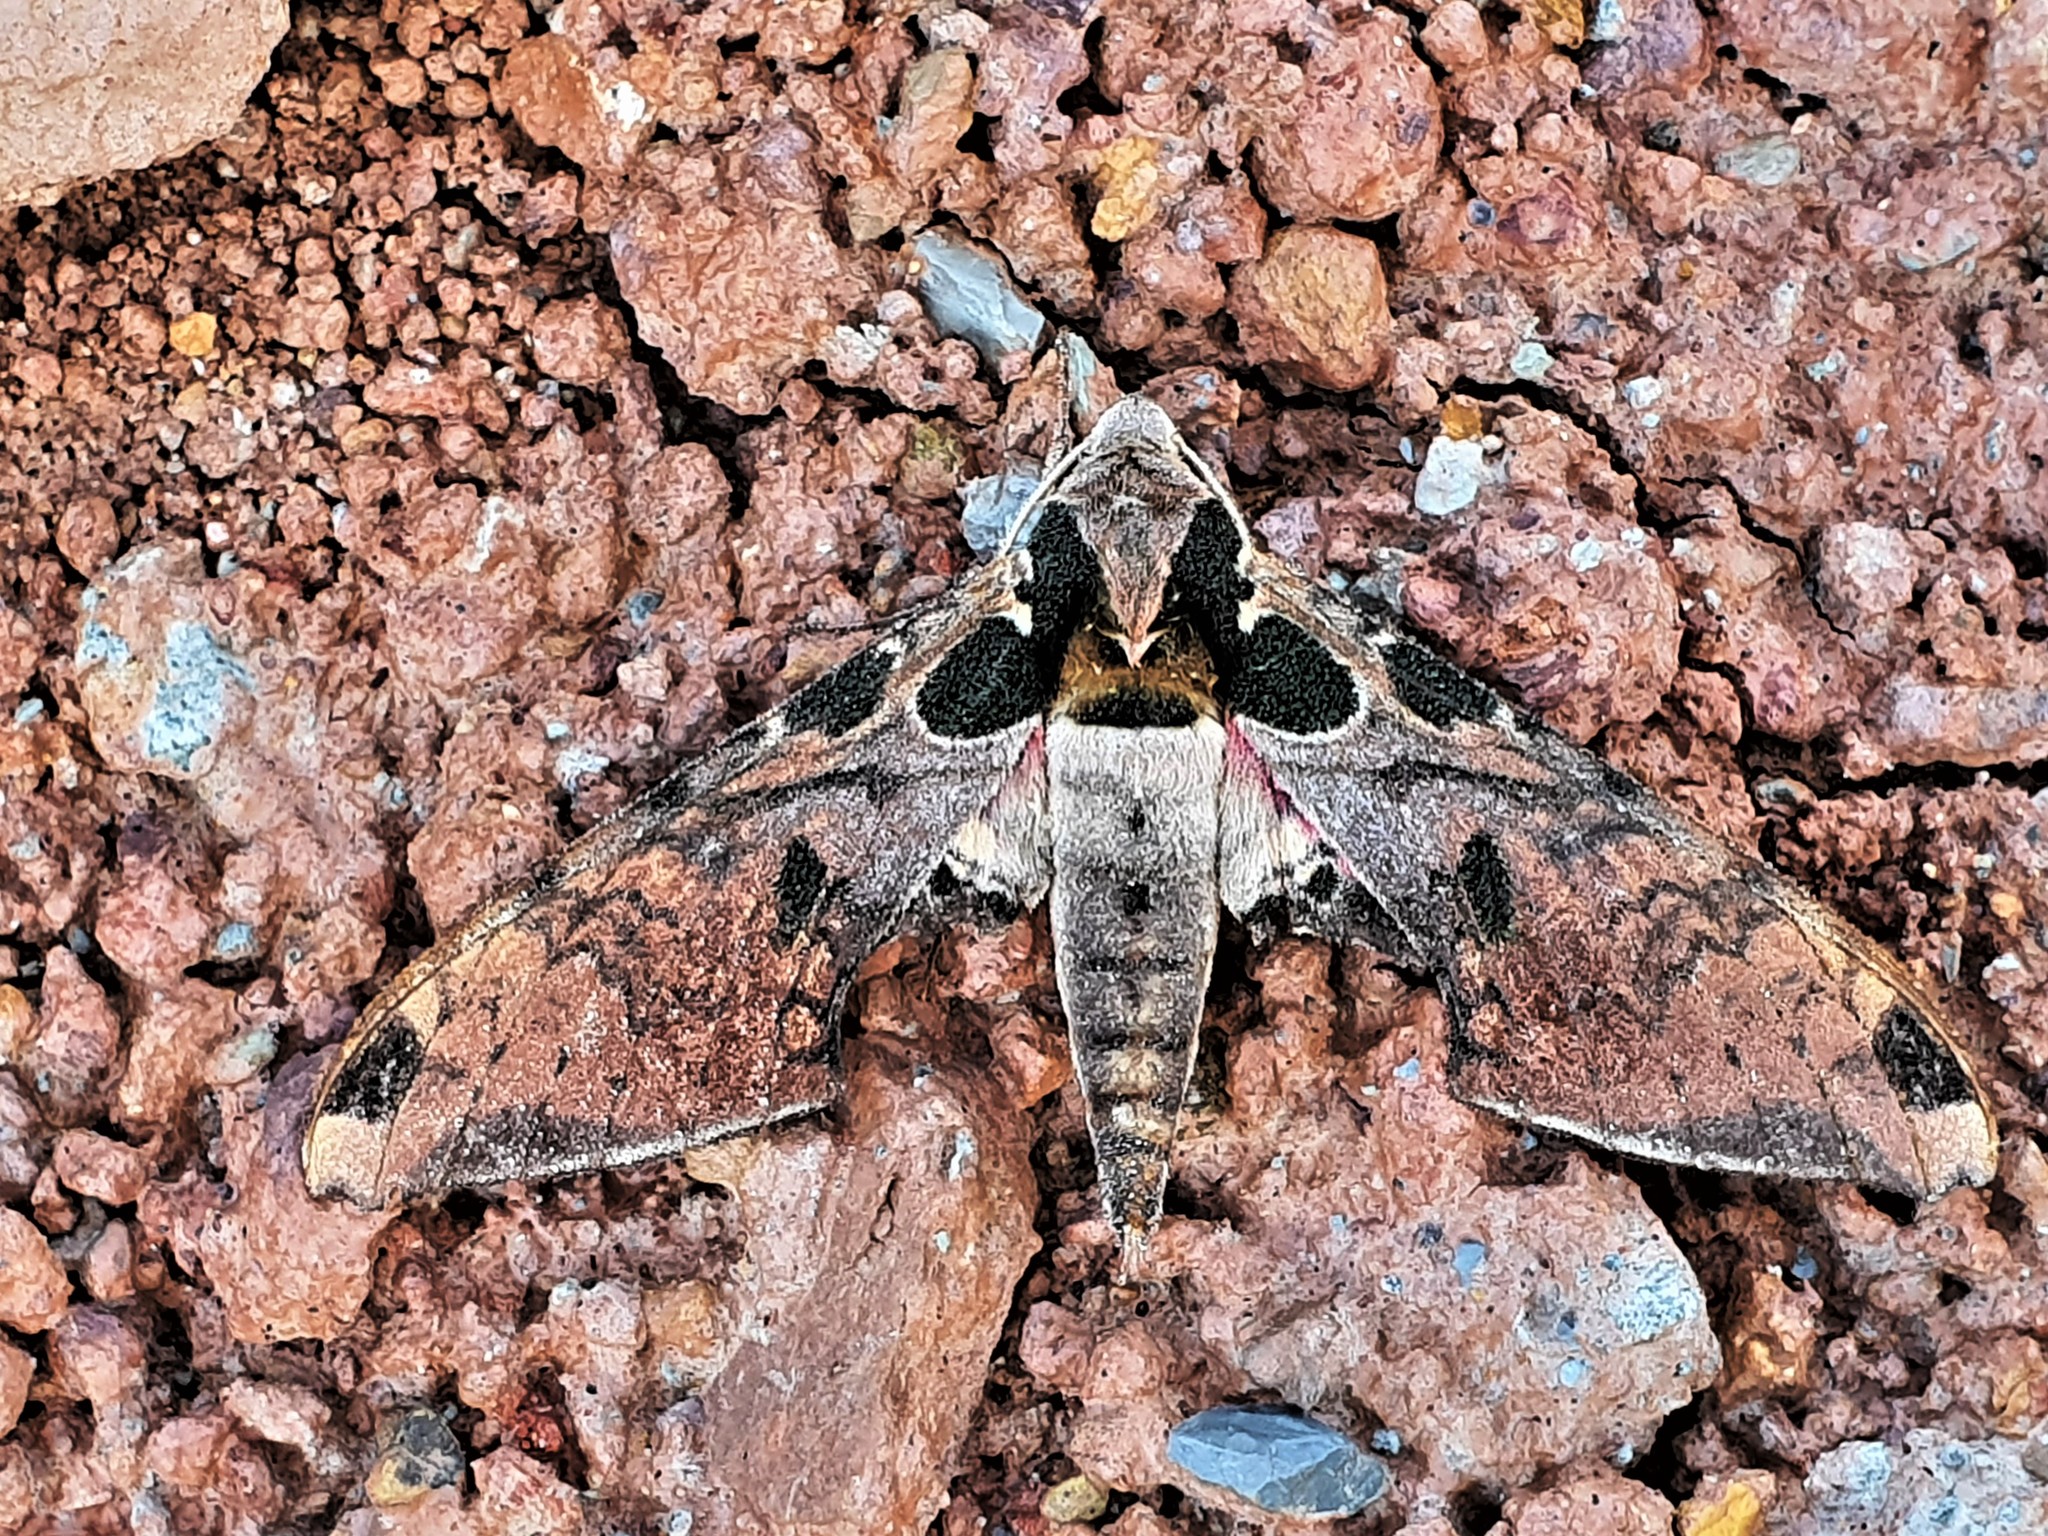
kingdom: Animalia
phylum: Arthropoda
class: Insecta
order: Lepidoptera
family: Sphingidae
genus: Adhemarius
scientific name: Adhemarius palmeri
